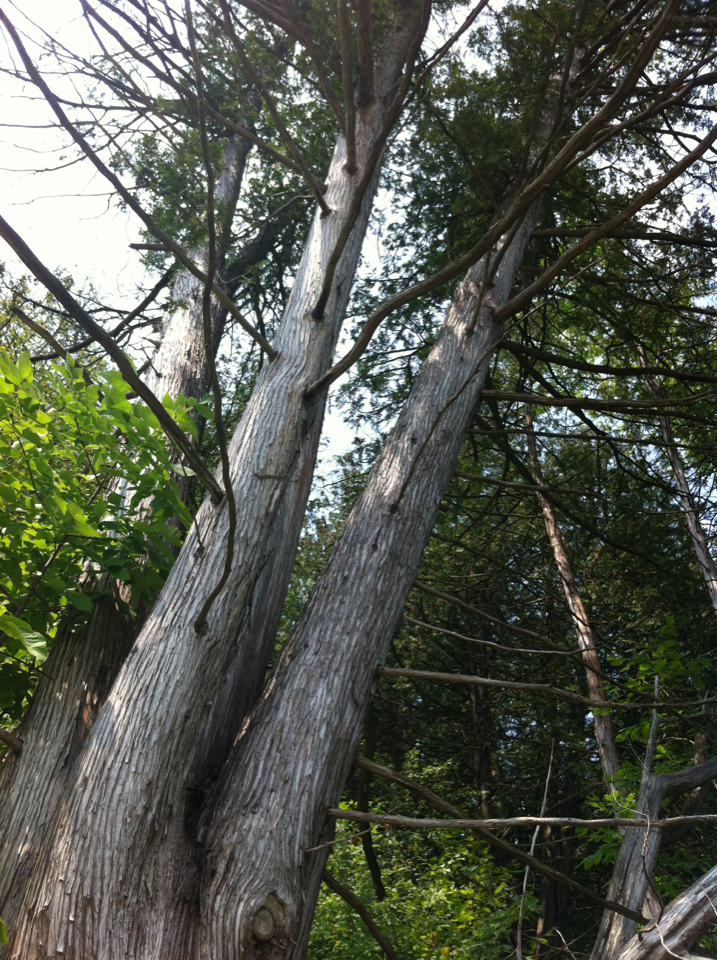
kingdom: Plantae
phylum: Tracheophyta
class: Pinopsida
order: Pinales
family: Cupressaceae
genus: Thuja
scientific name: Thuja occidentalis
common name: Northern white-cedar
